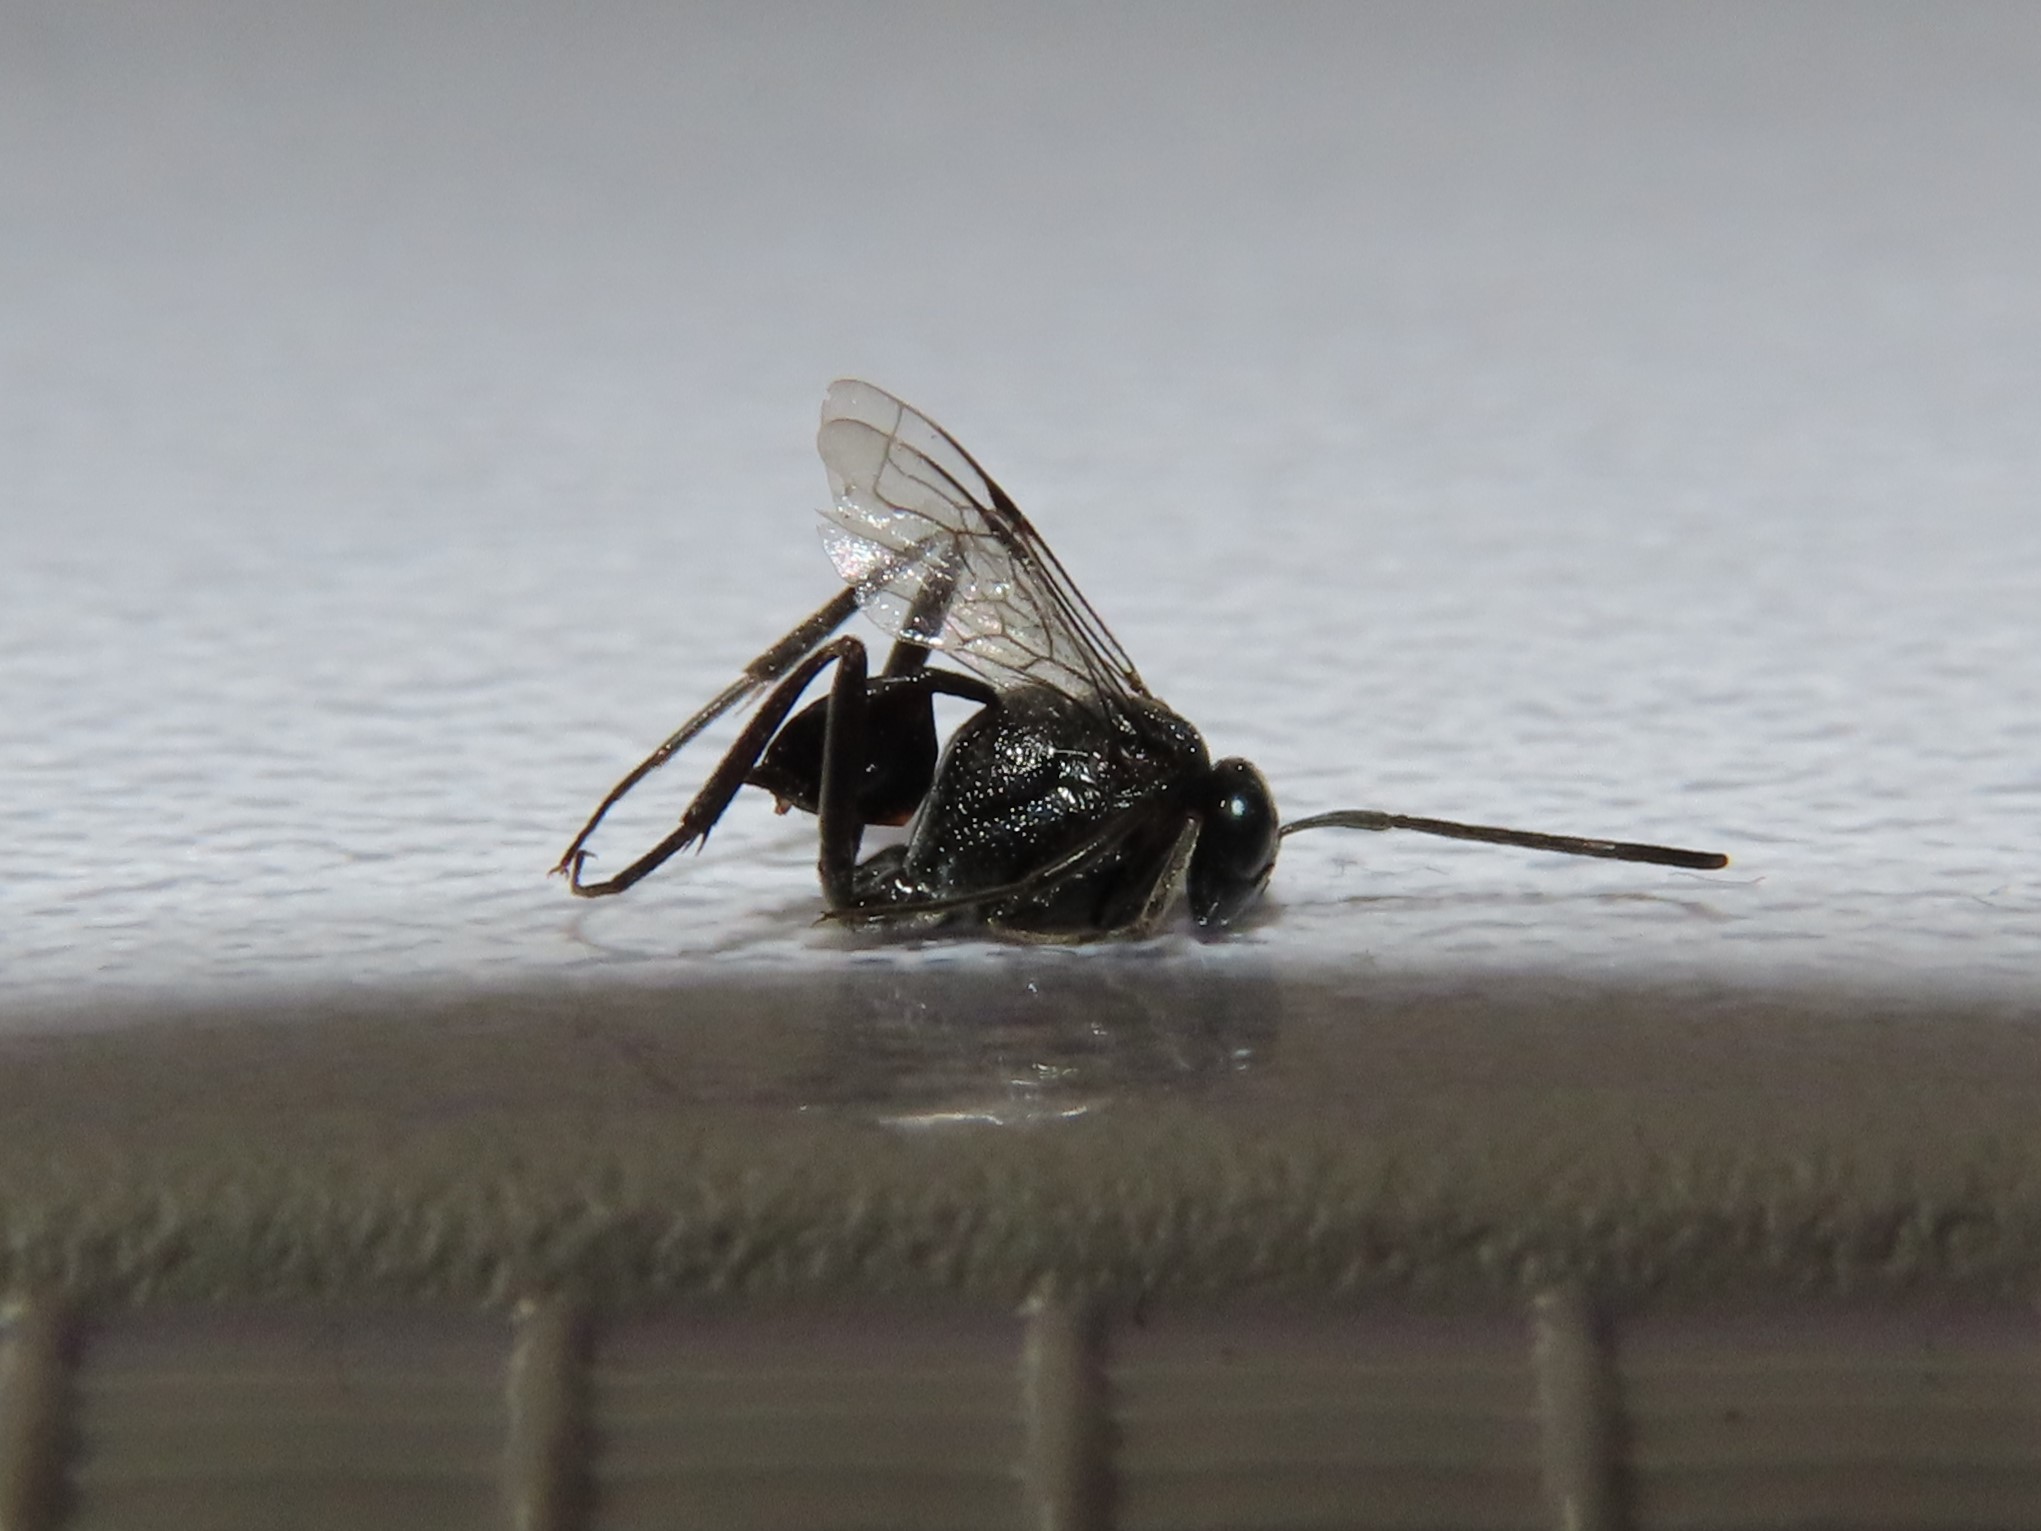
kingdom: Animalia
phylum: Arthropoda
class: Insecta
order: Hymenoptera
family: Evaniidae
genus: Evania
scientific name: Evania appendigaster
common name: Ensign wasp
